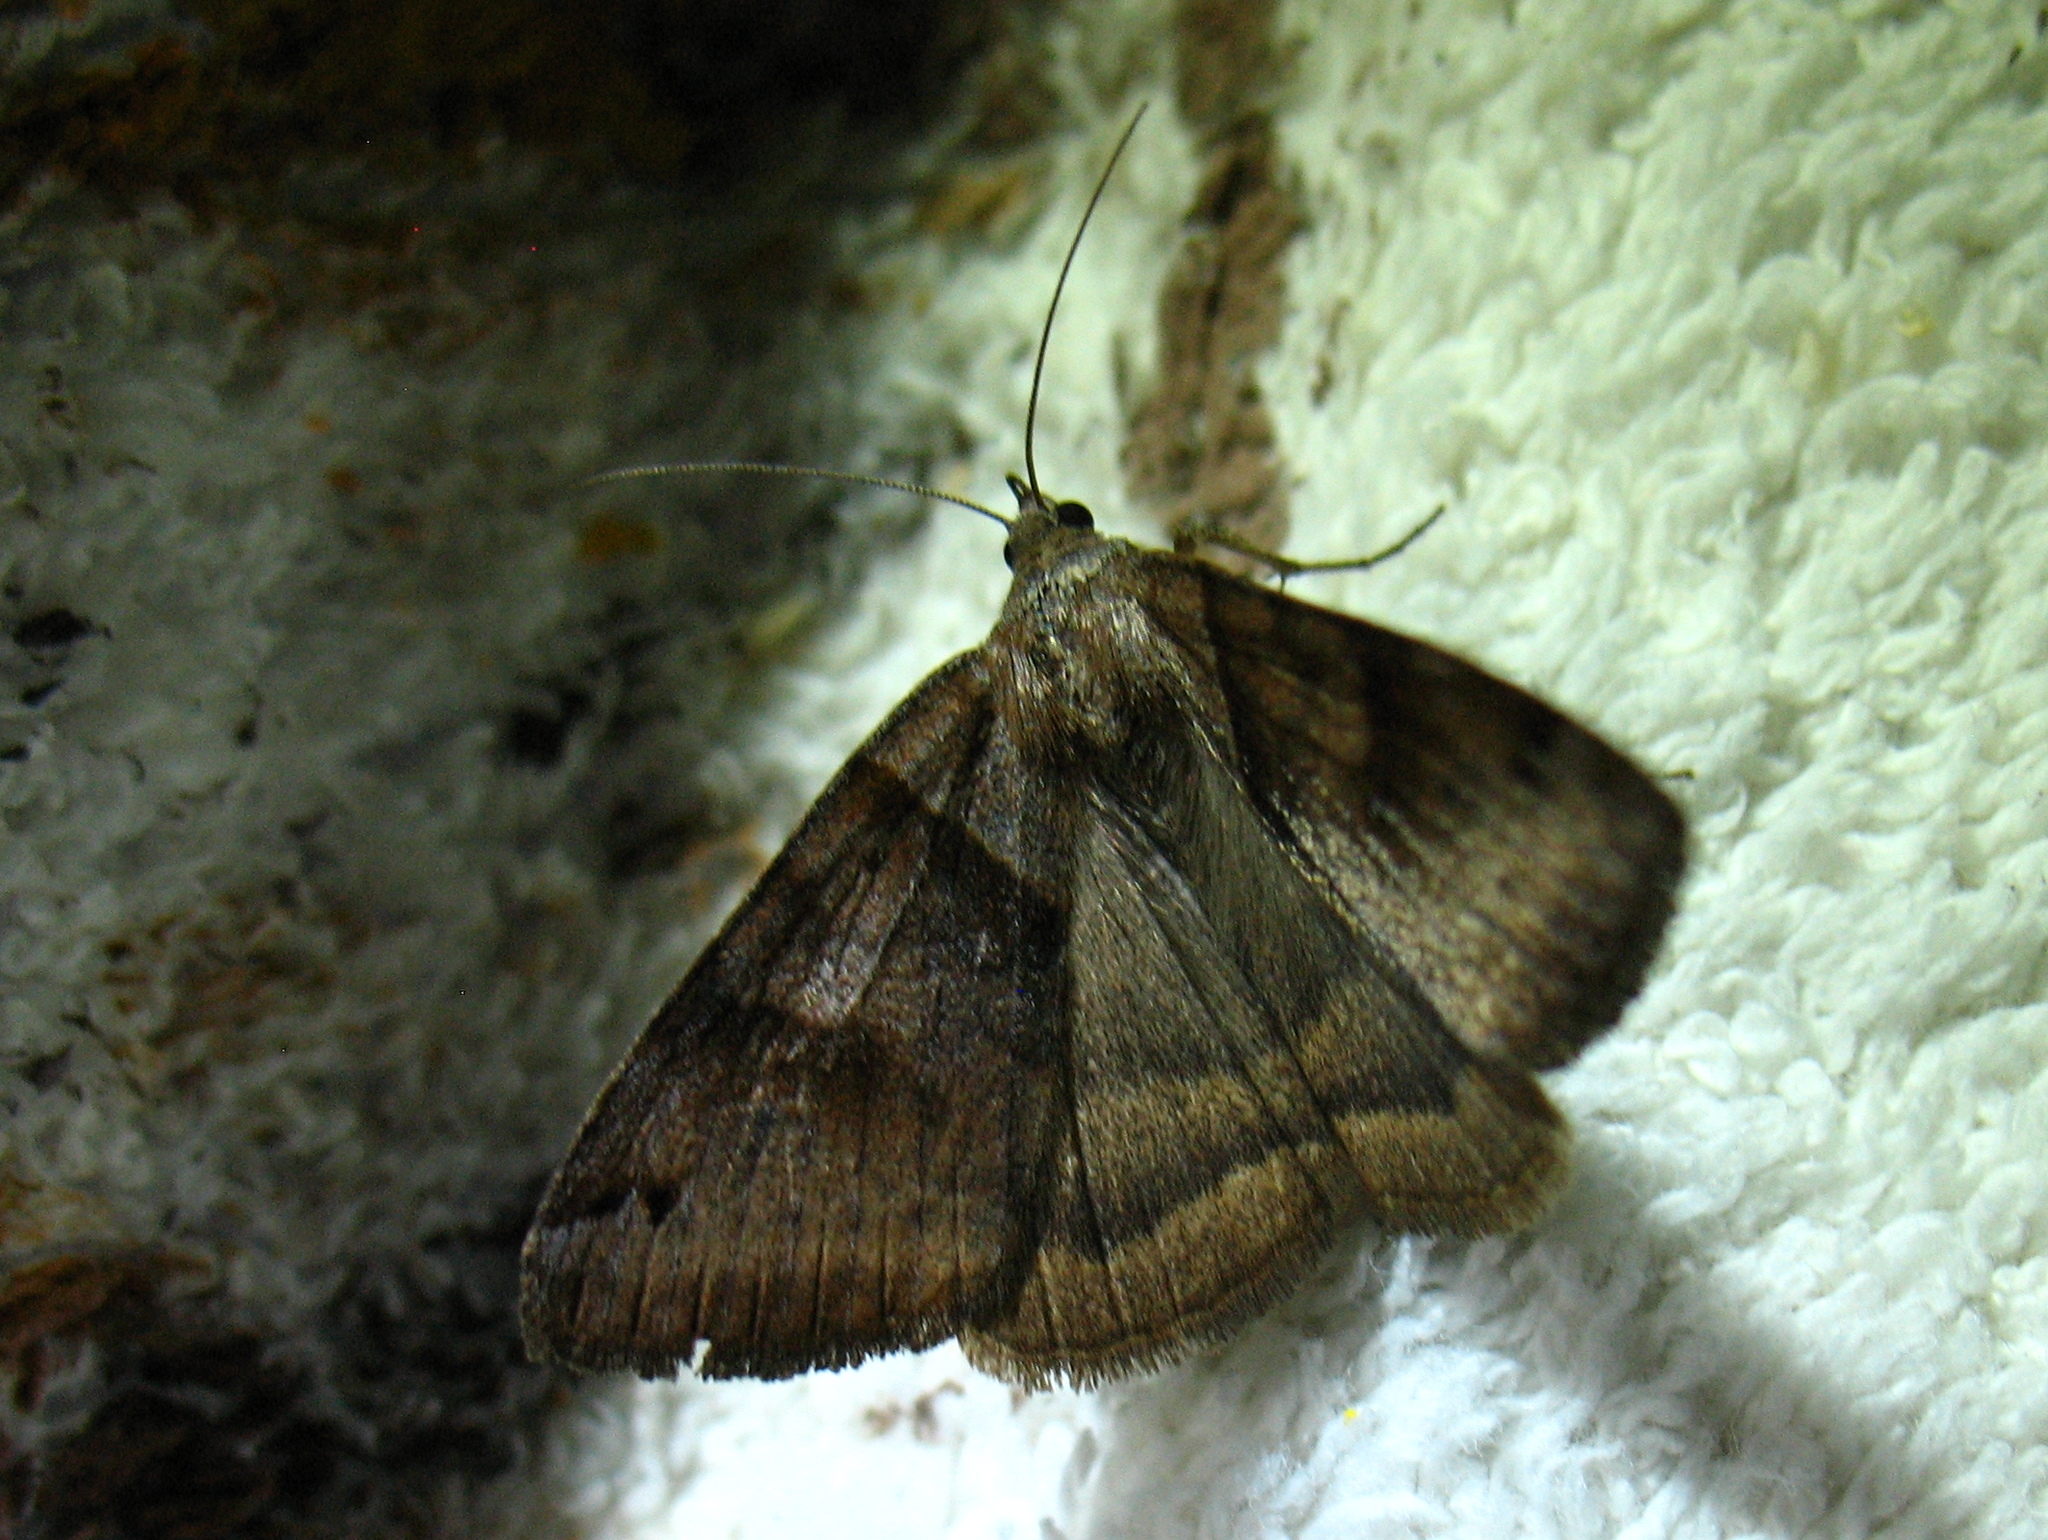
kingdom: Animalia
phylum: Arthropoda
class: Insecta
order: Lepidoptera
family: Erebidae
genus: Caenurgina
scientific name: Caenurgina crassiuscula
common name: Double-barred
